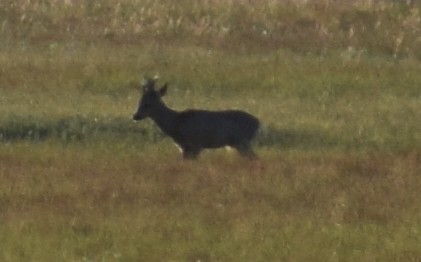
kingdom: Animalia
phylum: Chordata
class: Mammalia
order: Artiodactyla
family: Cervidae
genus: Capreolus
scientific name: Capreolus capreolus
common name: Western roe deer
